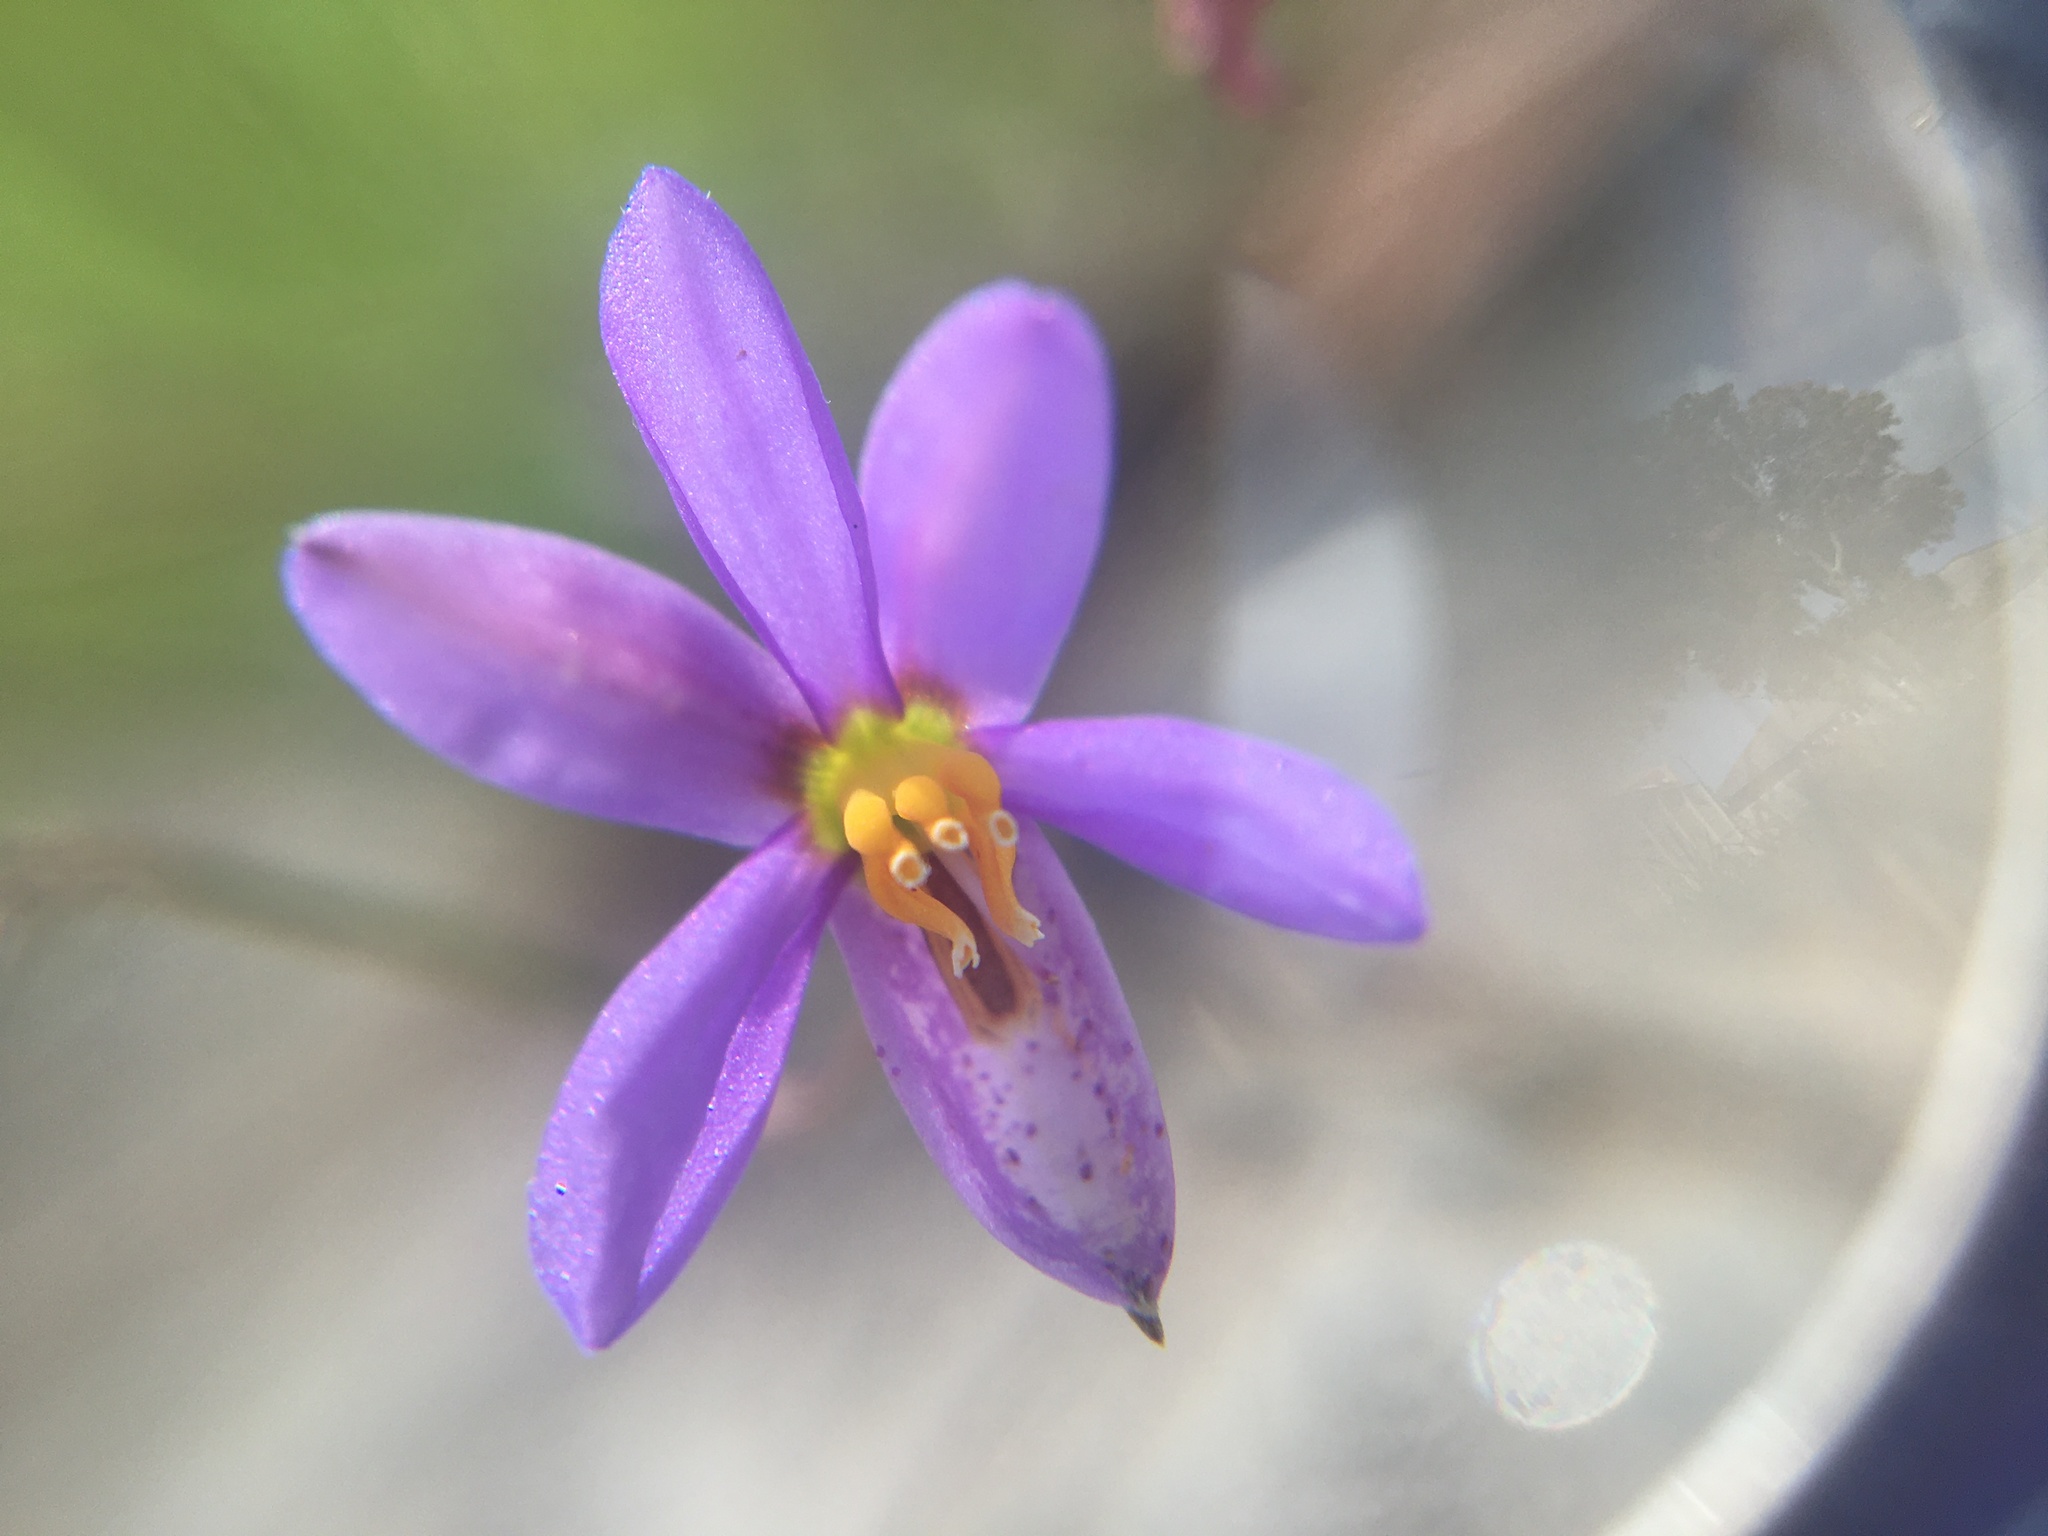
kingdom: Plantae
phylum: Tracheophyta
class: Liliopsida
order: Asparagales
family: Tecophilaeaceae
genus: Cyanella
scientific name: Cyanella hyacinthoides
